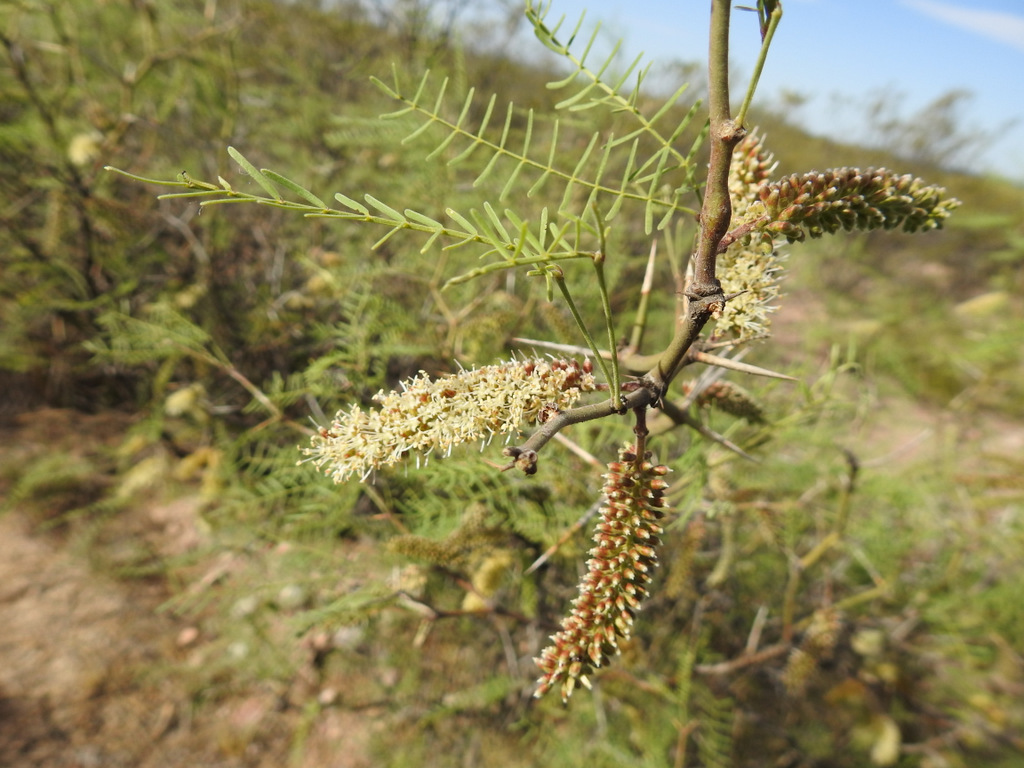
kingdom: Plantae
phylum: Tracheophyta
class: Magnoliopsida
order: Fabales
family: Fabaceae
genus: Prosopis
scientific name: Prosopis flexuosa
